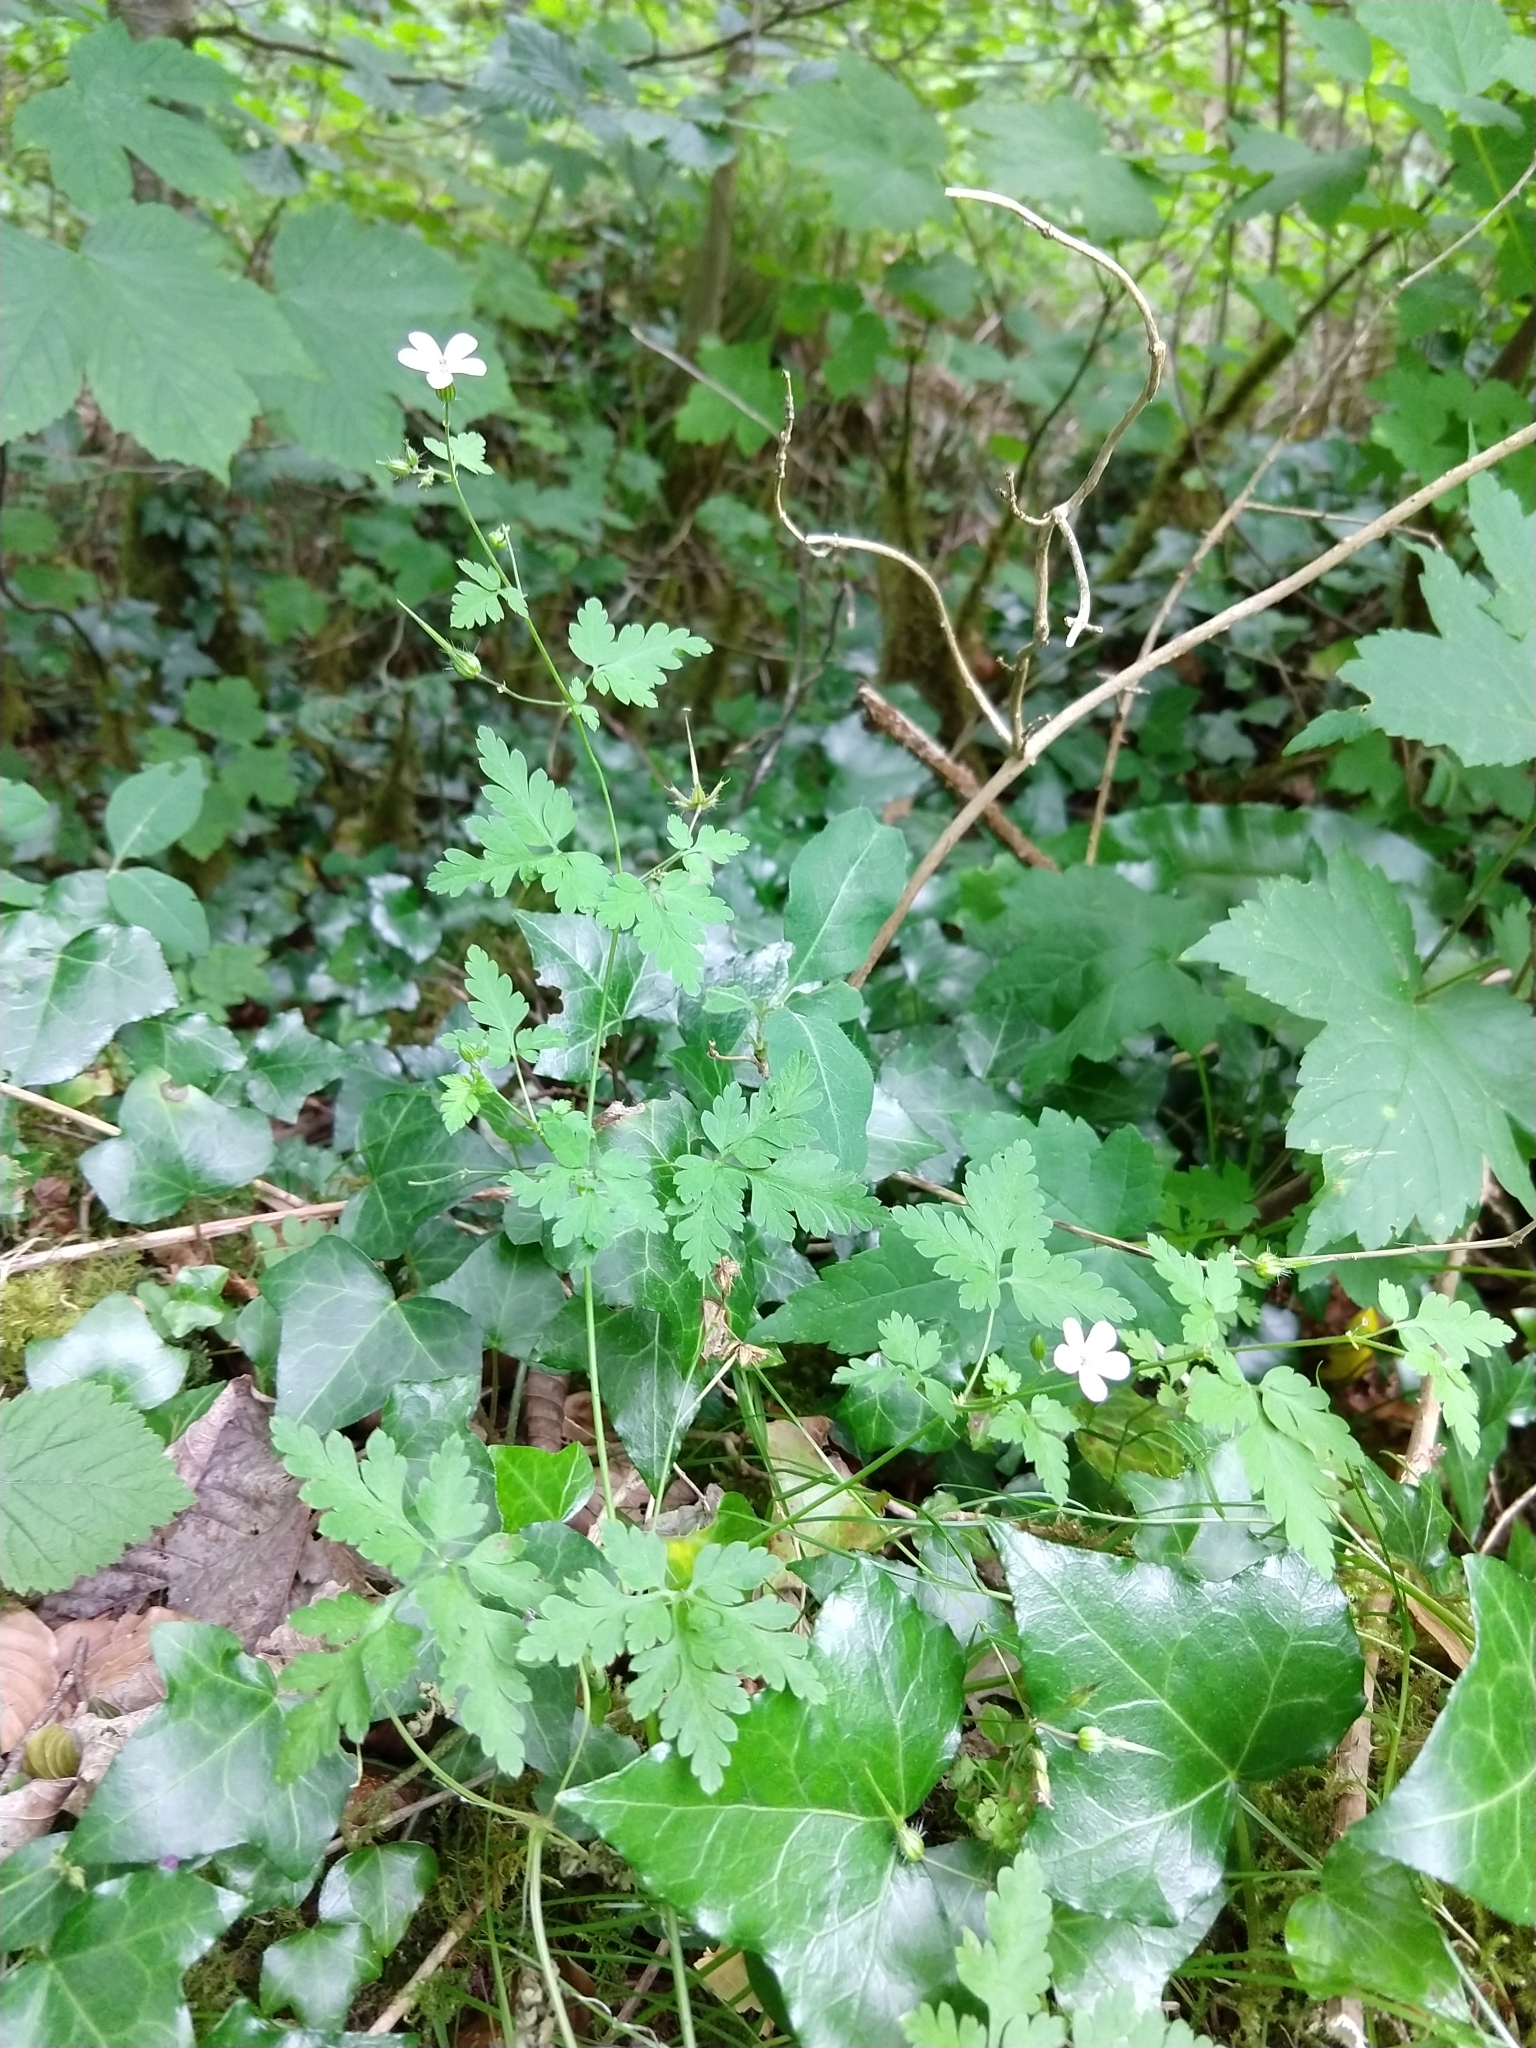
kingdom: Plantae
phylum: Tracheophyta
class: Magnoliopsida
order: Geraniales
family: Geraniaceae
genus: Geranium
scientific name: Geranium robertianum
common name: Herb-robert
